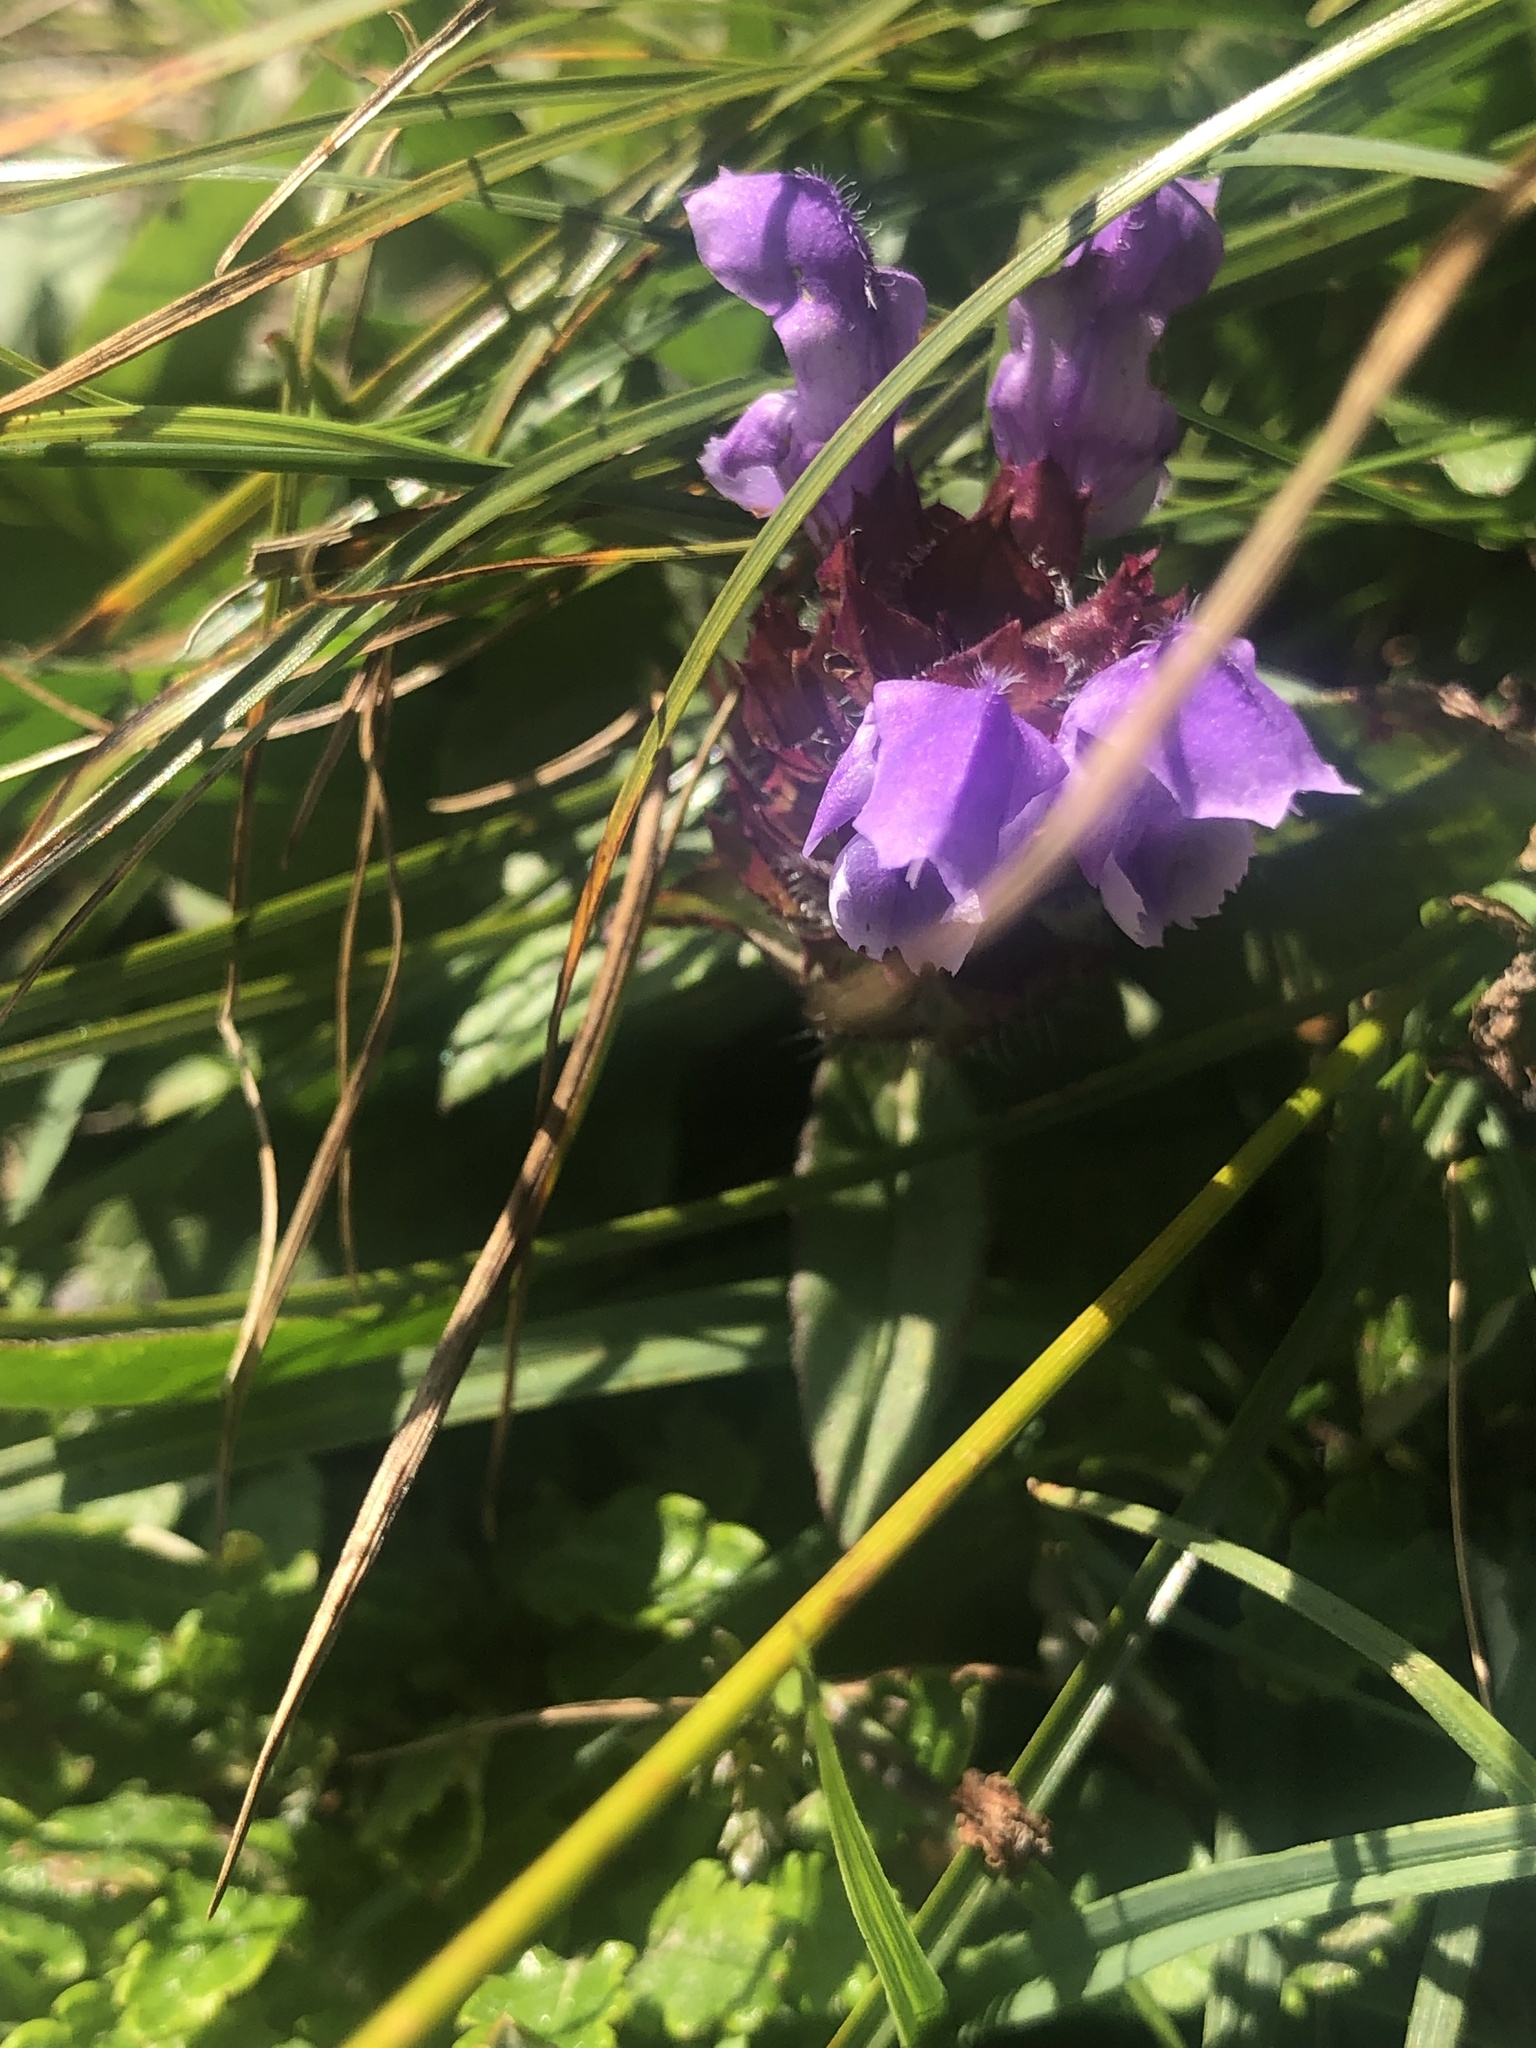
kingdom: Plantae
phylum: Tracheophyta
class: Magnoliopsida
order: Lamiales
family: Lamiaceae
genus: Prunella
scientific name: Prunella grandiflora
